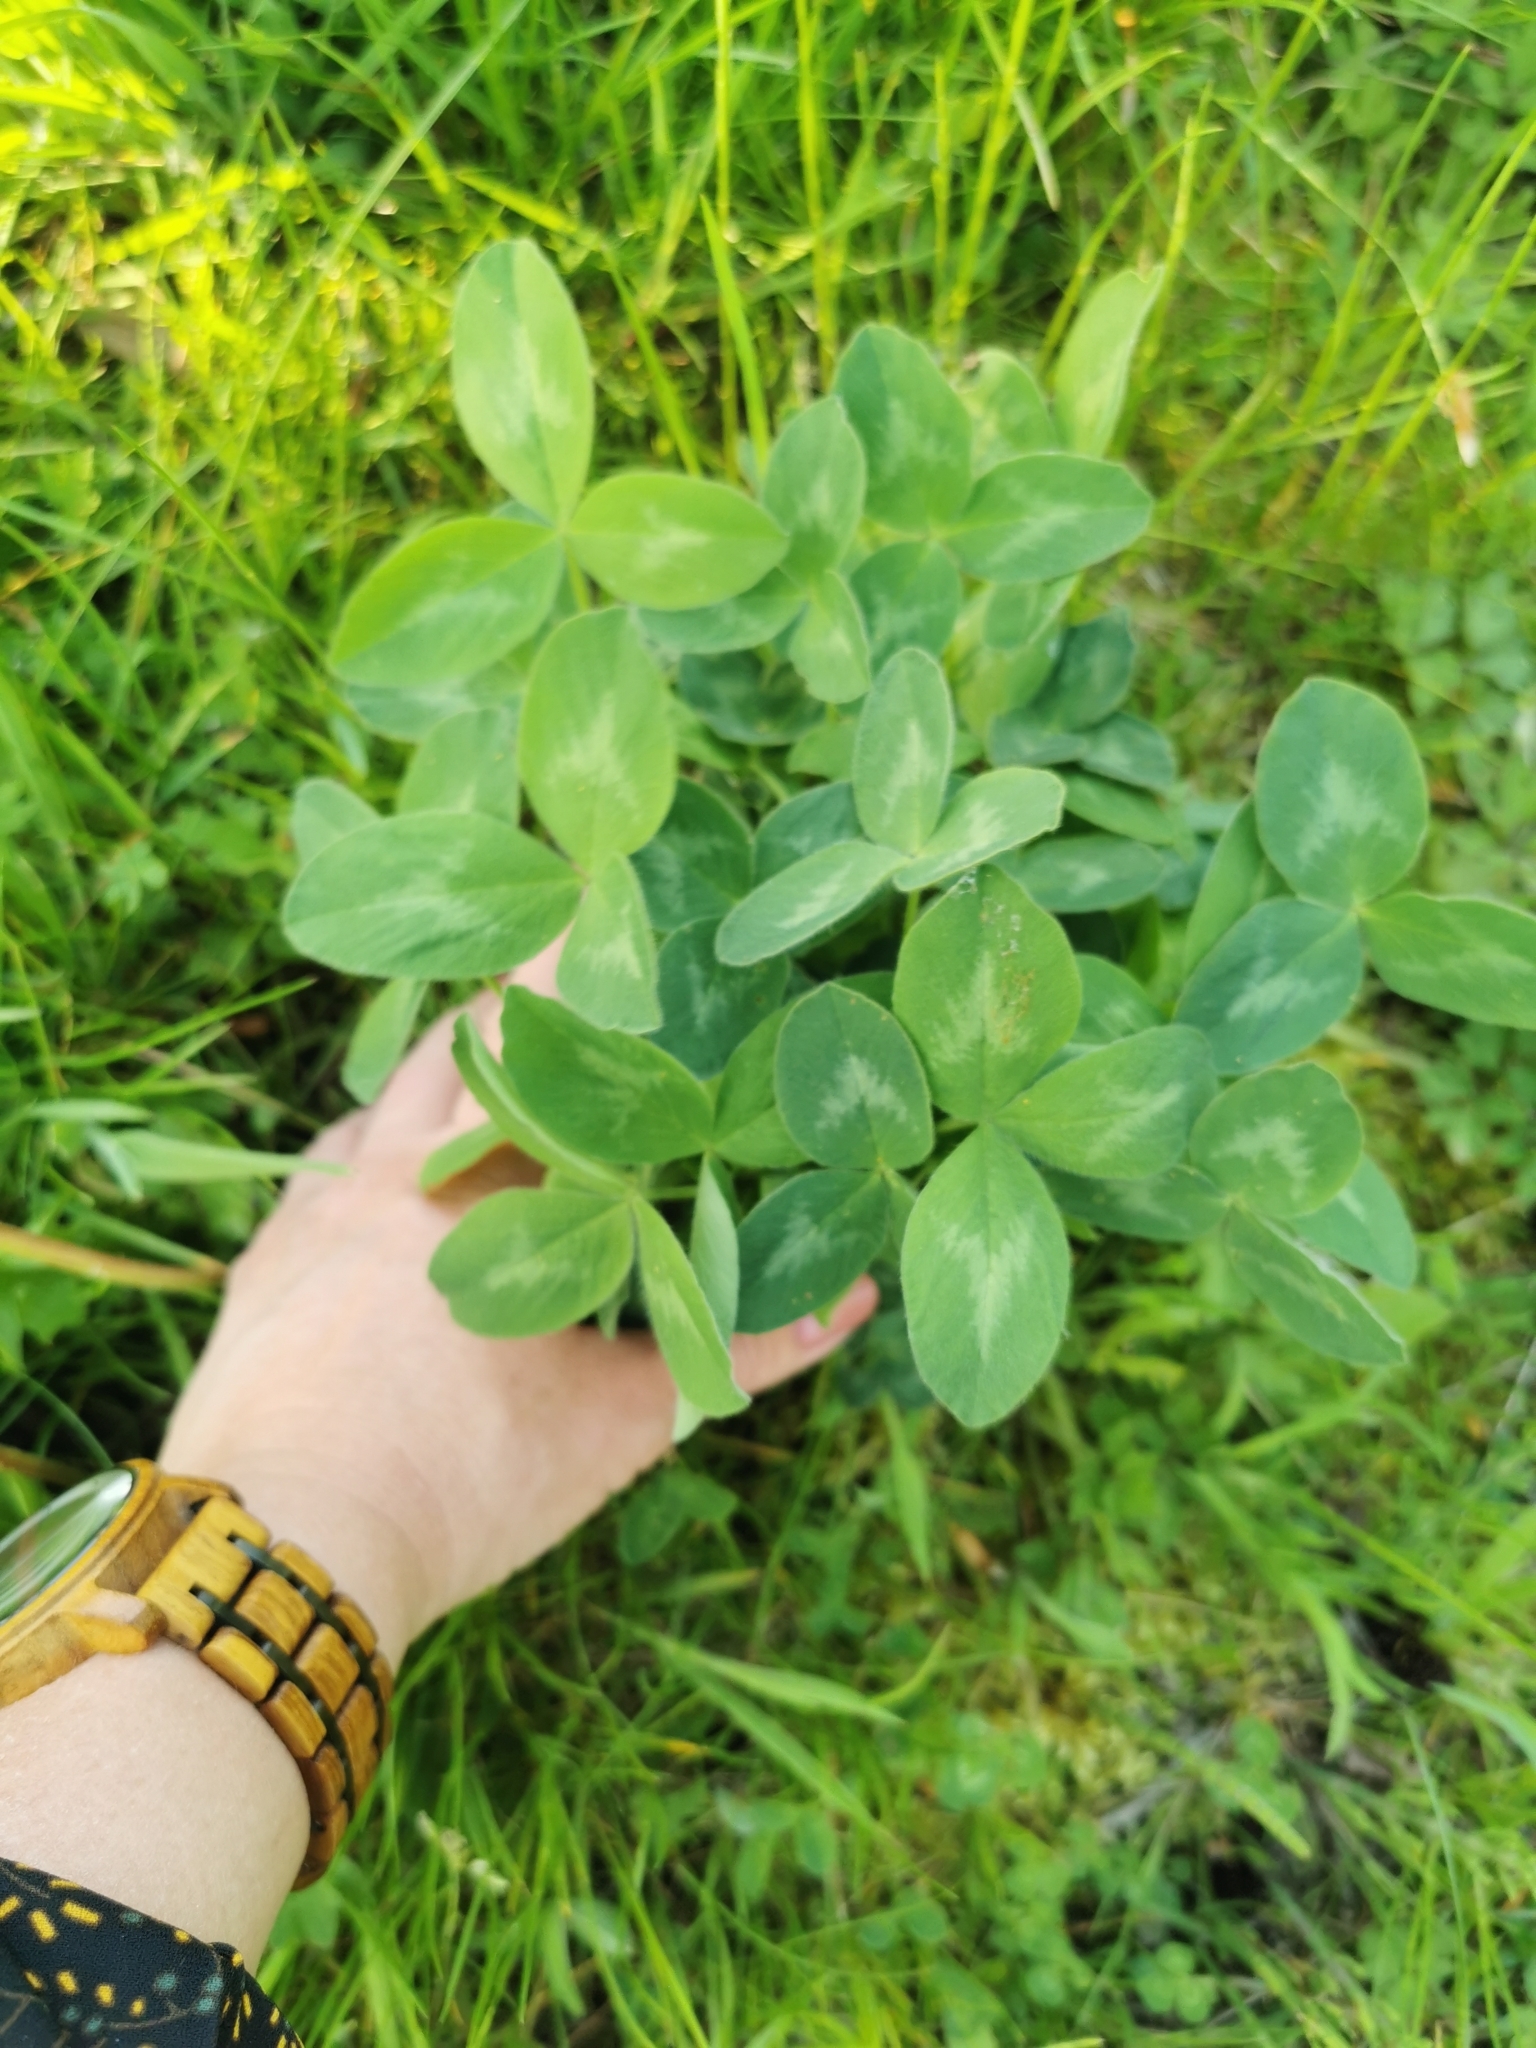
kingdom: Plantae
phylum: Tracheophyta
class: Magnoliopsida
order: Fabales
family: Fabaceae
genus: Trifolium
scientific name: Trifolium pratense
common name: Red clover
